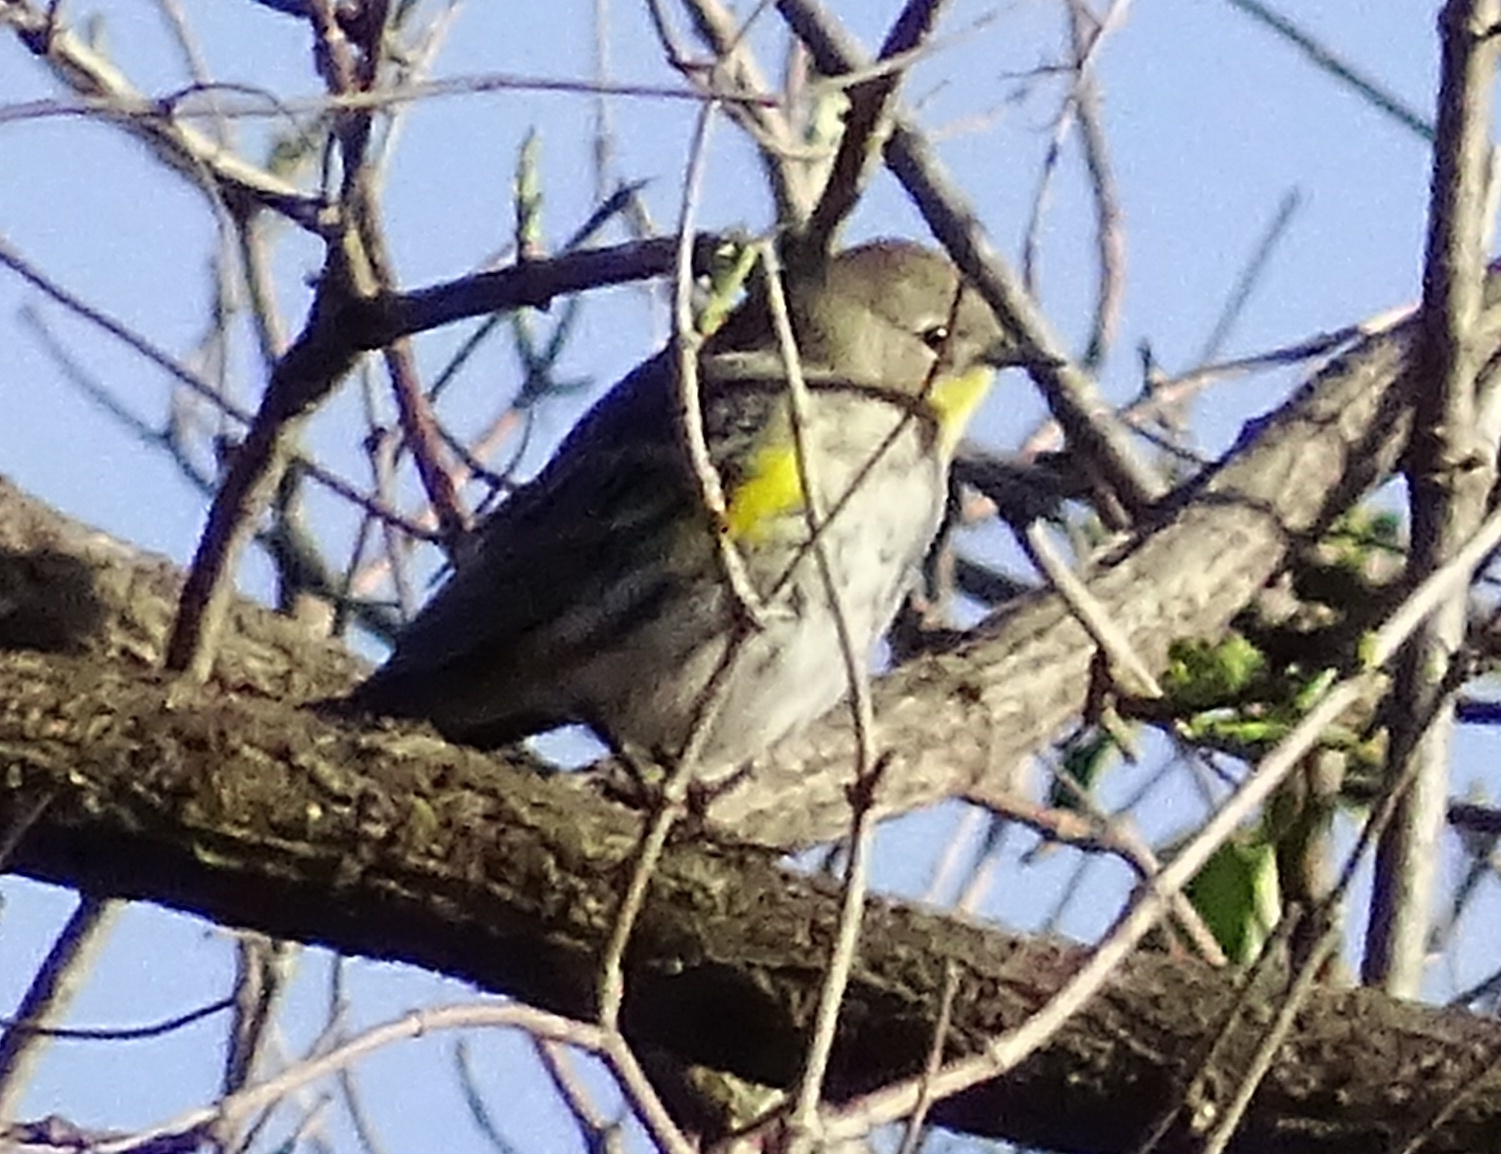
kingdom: Animalia
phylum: Chordata
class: Aves
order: Passeriformes
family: Parulidae
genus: Setophaga
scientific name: Setophaga coronata
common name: Myrtle warbler
